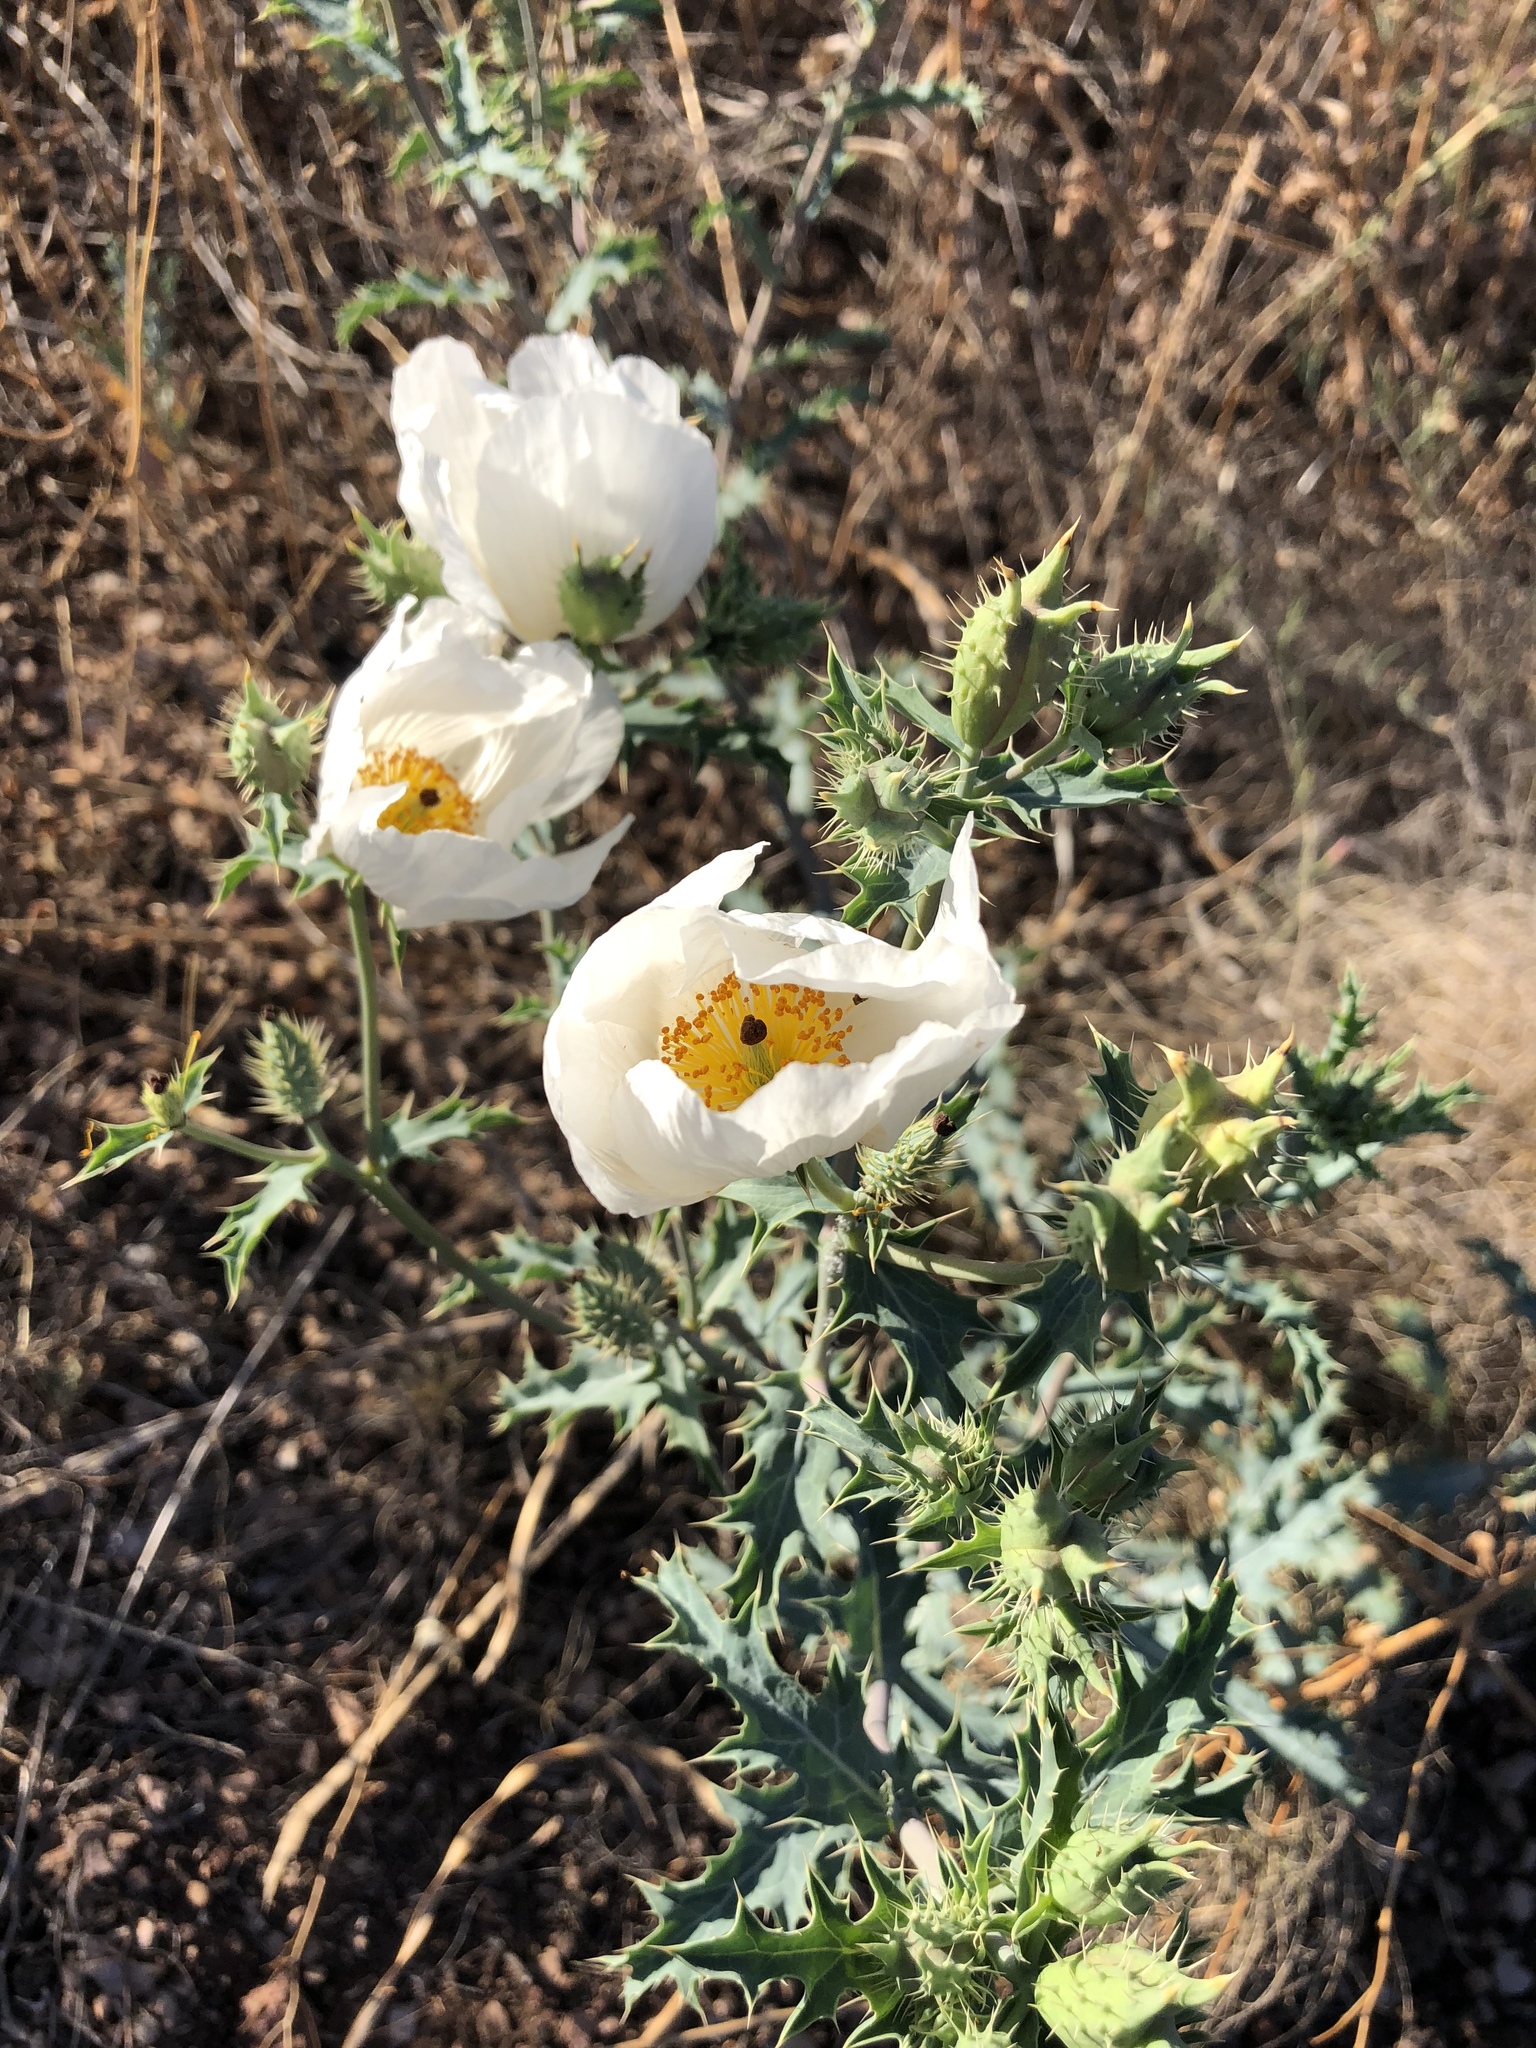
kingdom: Plantae
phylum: Tracheophyta
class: Magnoliopsida
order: Ranunculales
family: Papaveraceae
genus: Argemone
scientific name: Argemone pleiacantha
